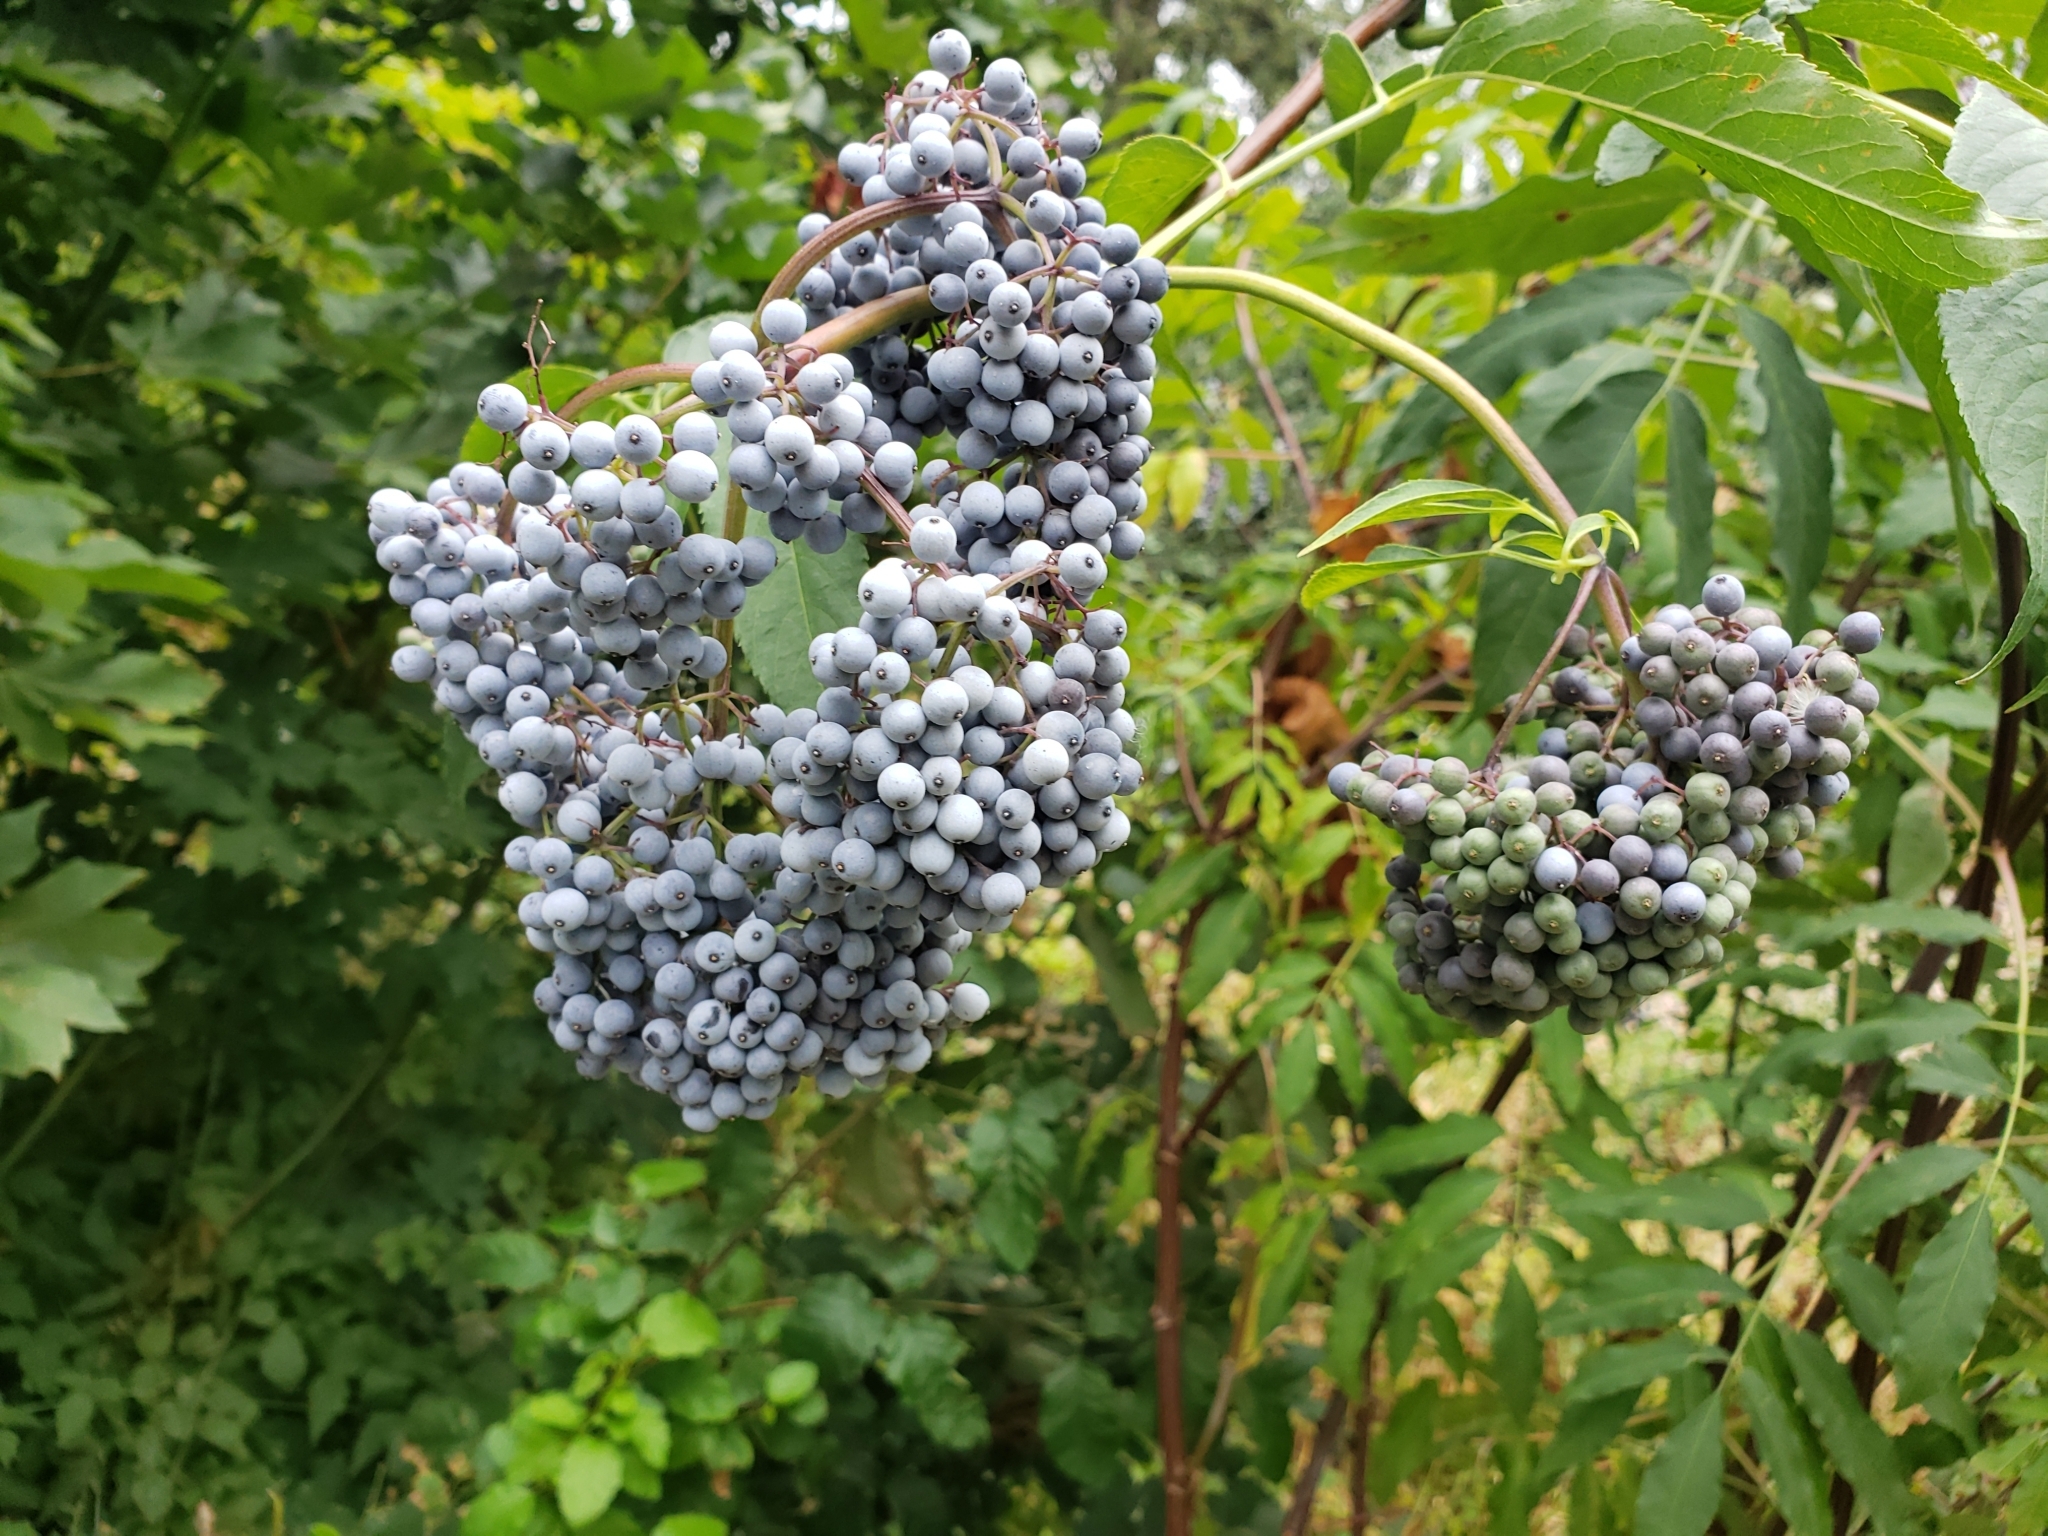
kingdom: Plantae
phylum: Tracheophyta
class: Magnoliopsida
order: Dipsacales
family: Viburnaceae
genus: Sambucus
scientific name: Sambucus cerulea
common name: Blue elder
